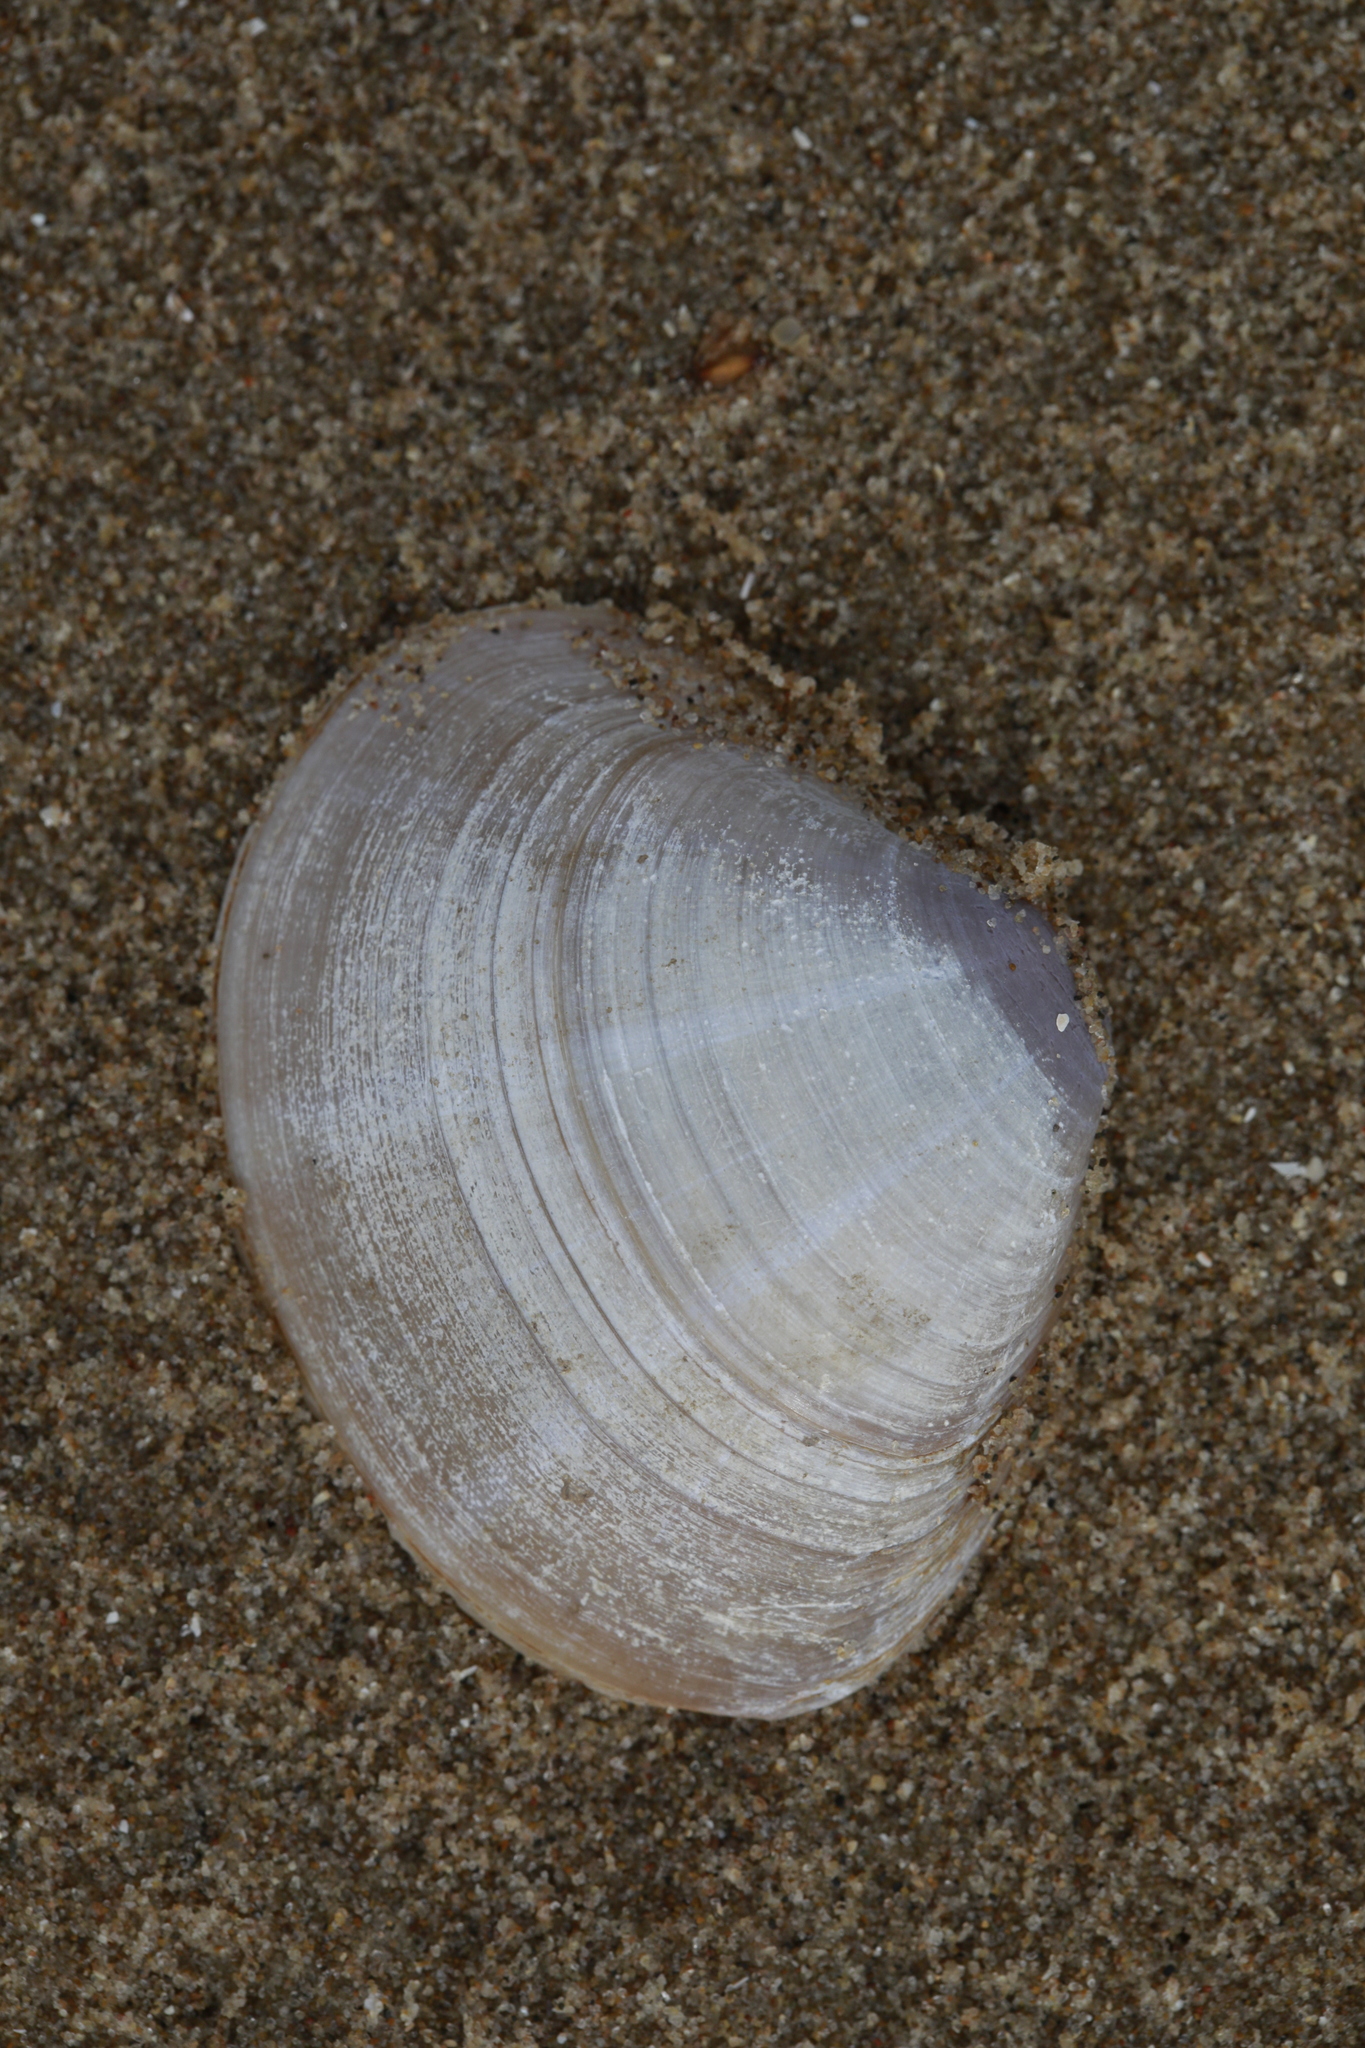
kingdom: Animalia
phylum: Mollusca
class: Bivalvia
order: Venerida
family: Mactridae
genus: Mactra
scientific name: Mactra stultorum
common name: Rayed trough shell
